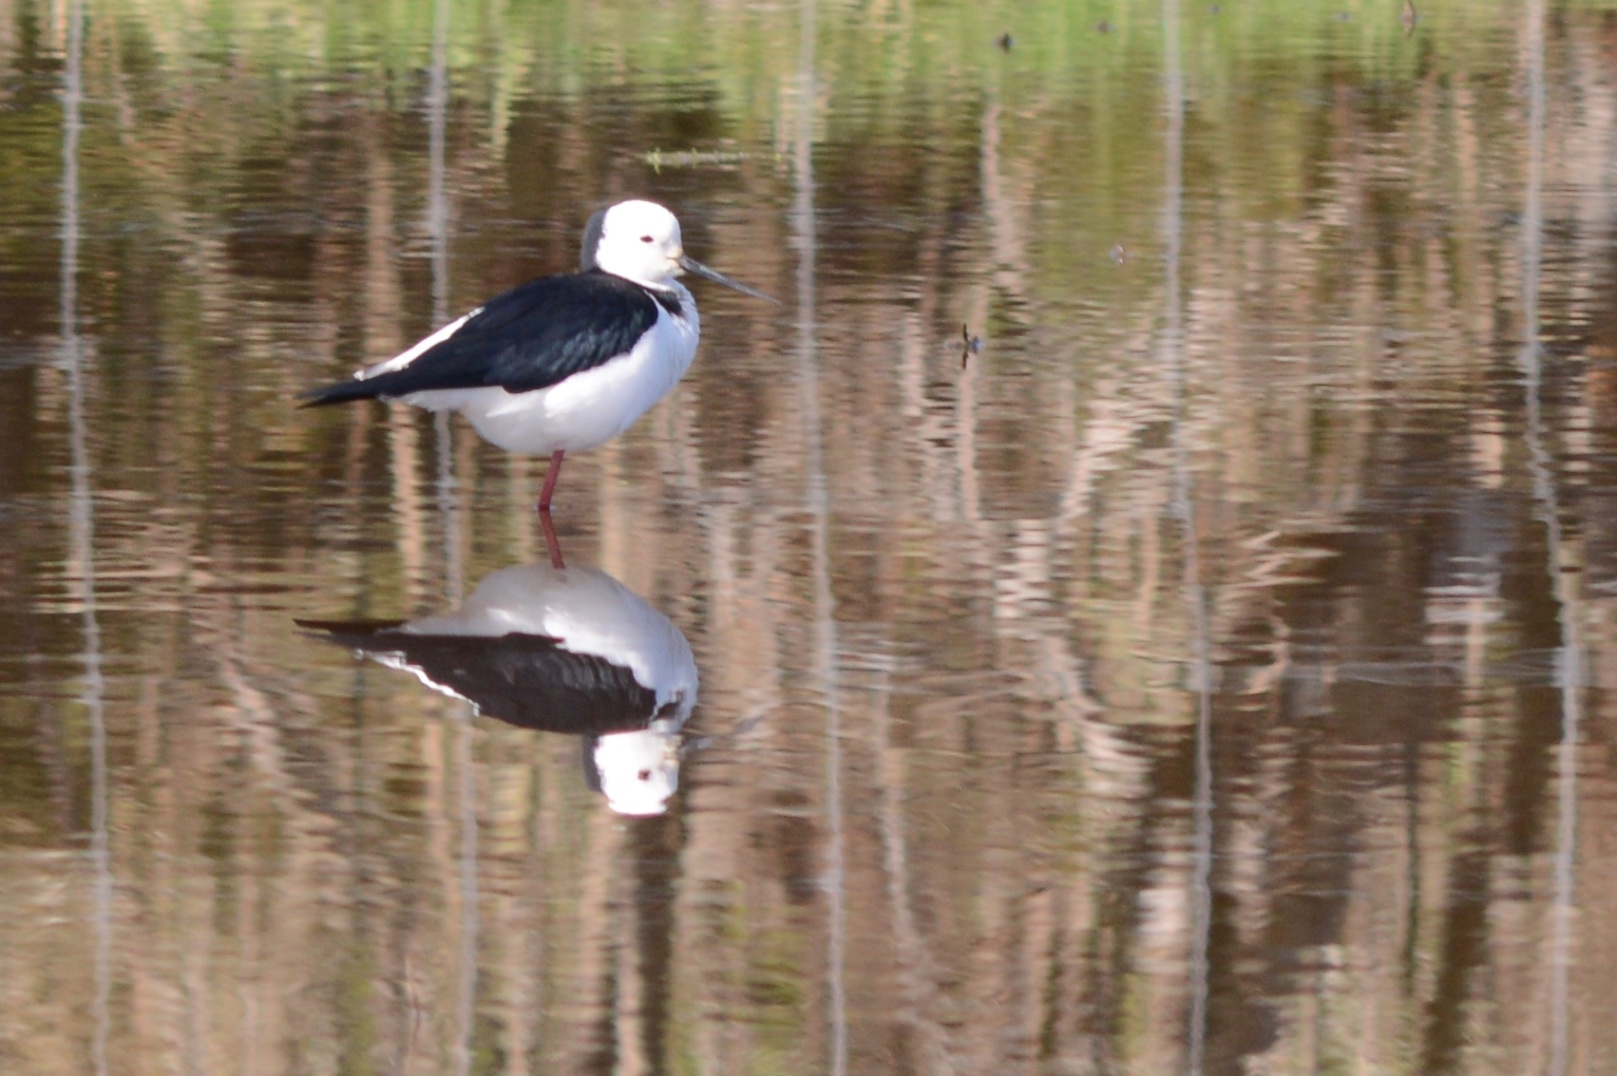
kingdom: Animalia
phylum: Chordata
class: Aves
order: Charadriiformes
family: Recurvirostridae
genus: Himantopus
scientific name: Himantopus leucocephalus
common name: White-headed stilt
